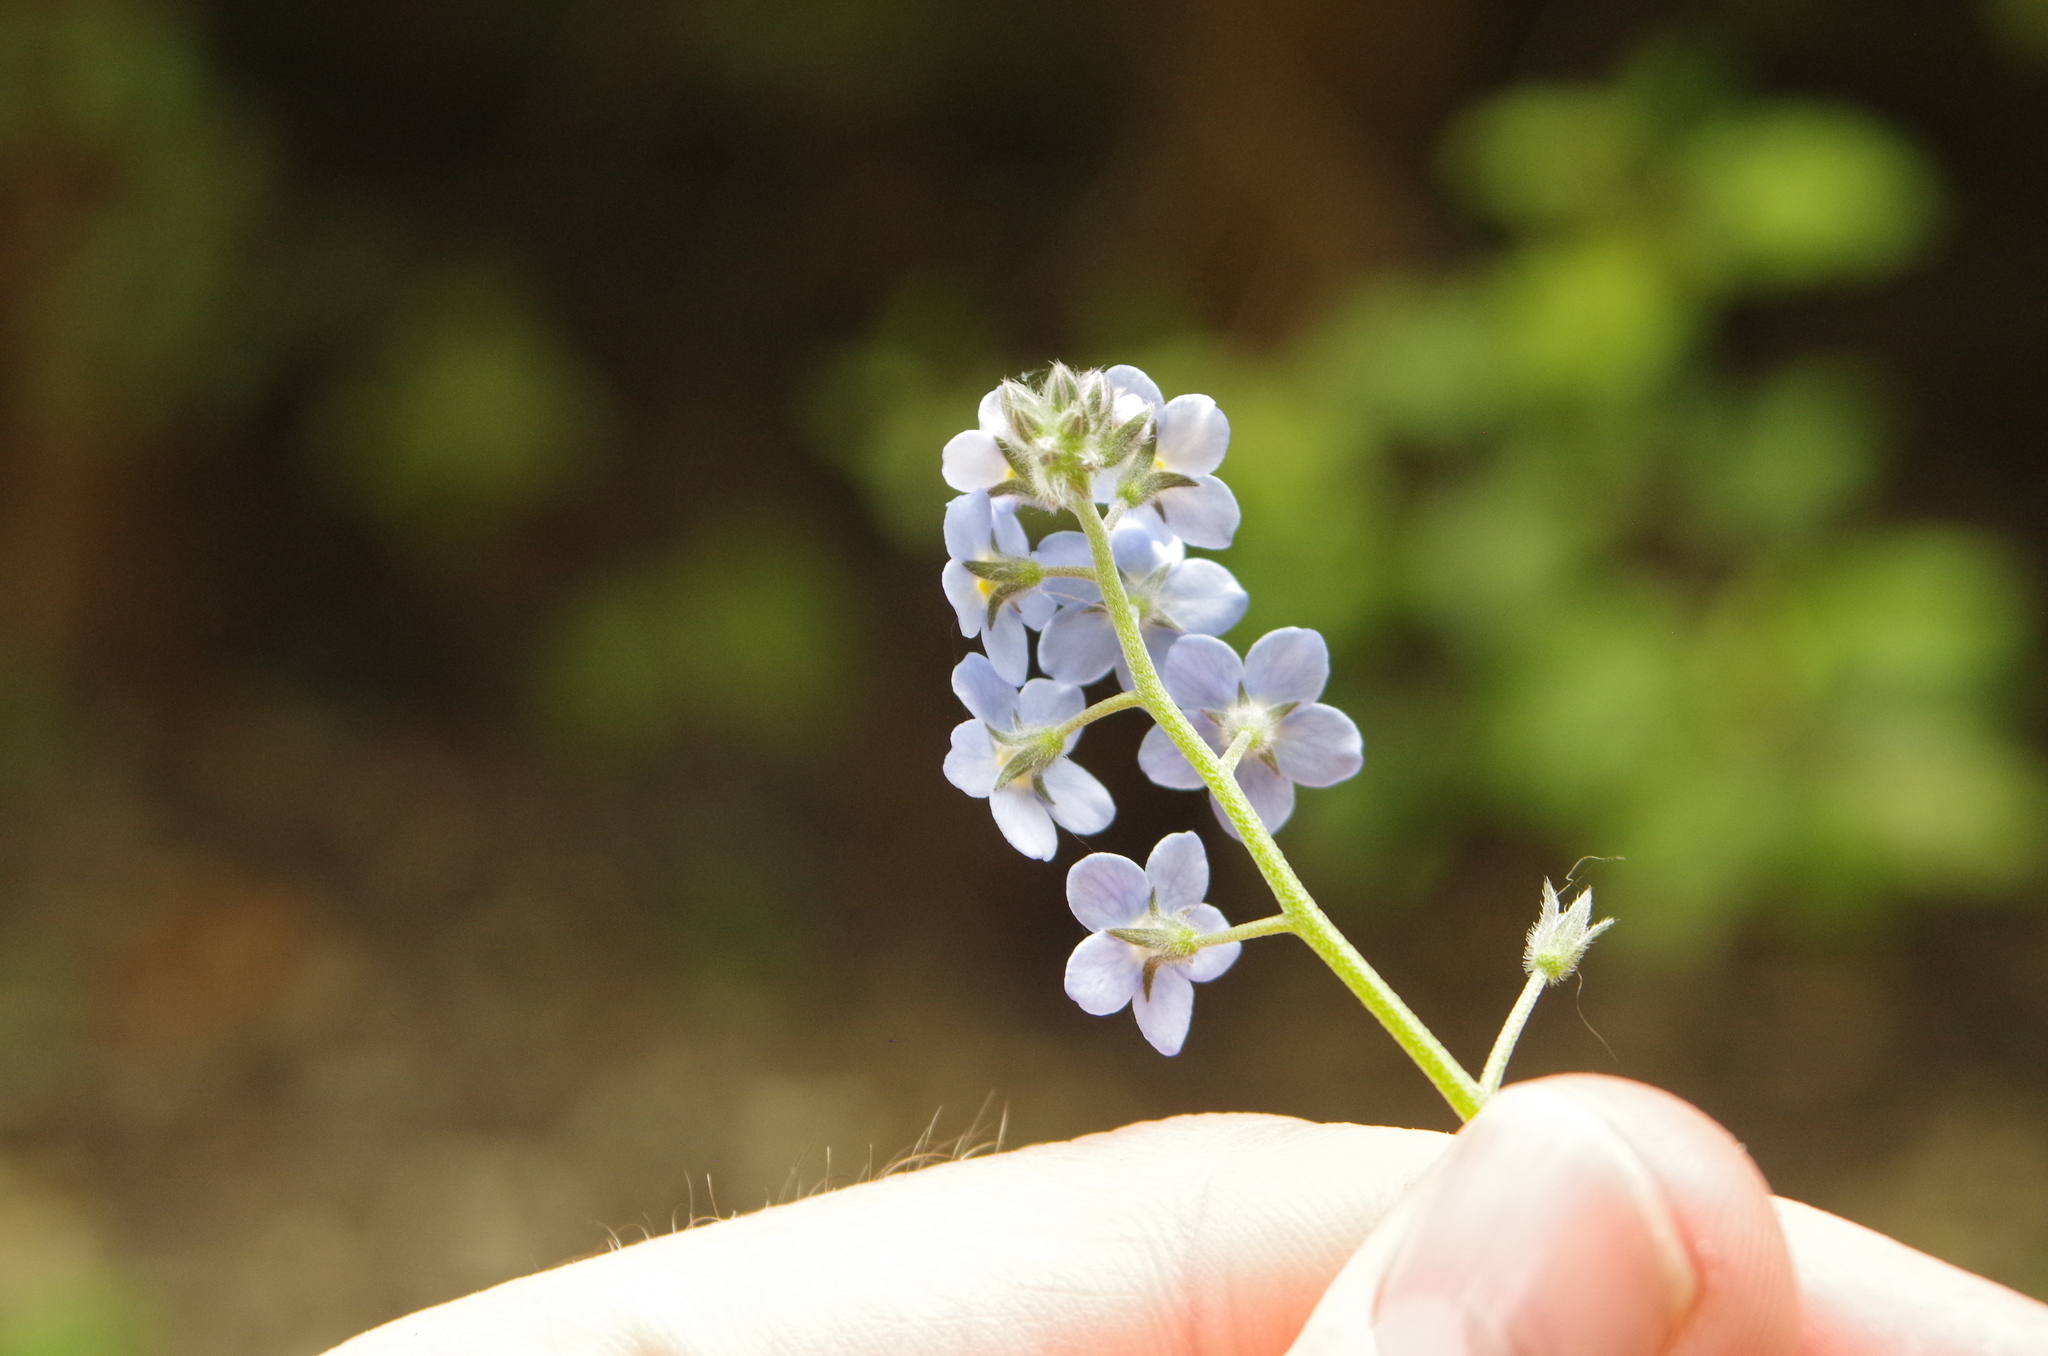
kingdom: Plantae
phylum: Tracheophyta
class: Magnoliopsida
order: Boraginales
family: Boraginaceae
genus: Myosotis
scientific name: Myosotis sylvatica
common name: Wood forget-me-not
